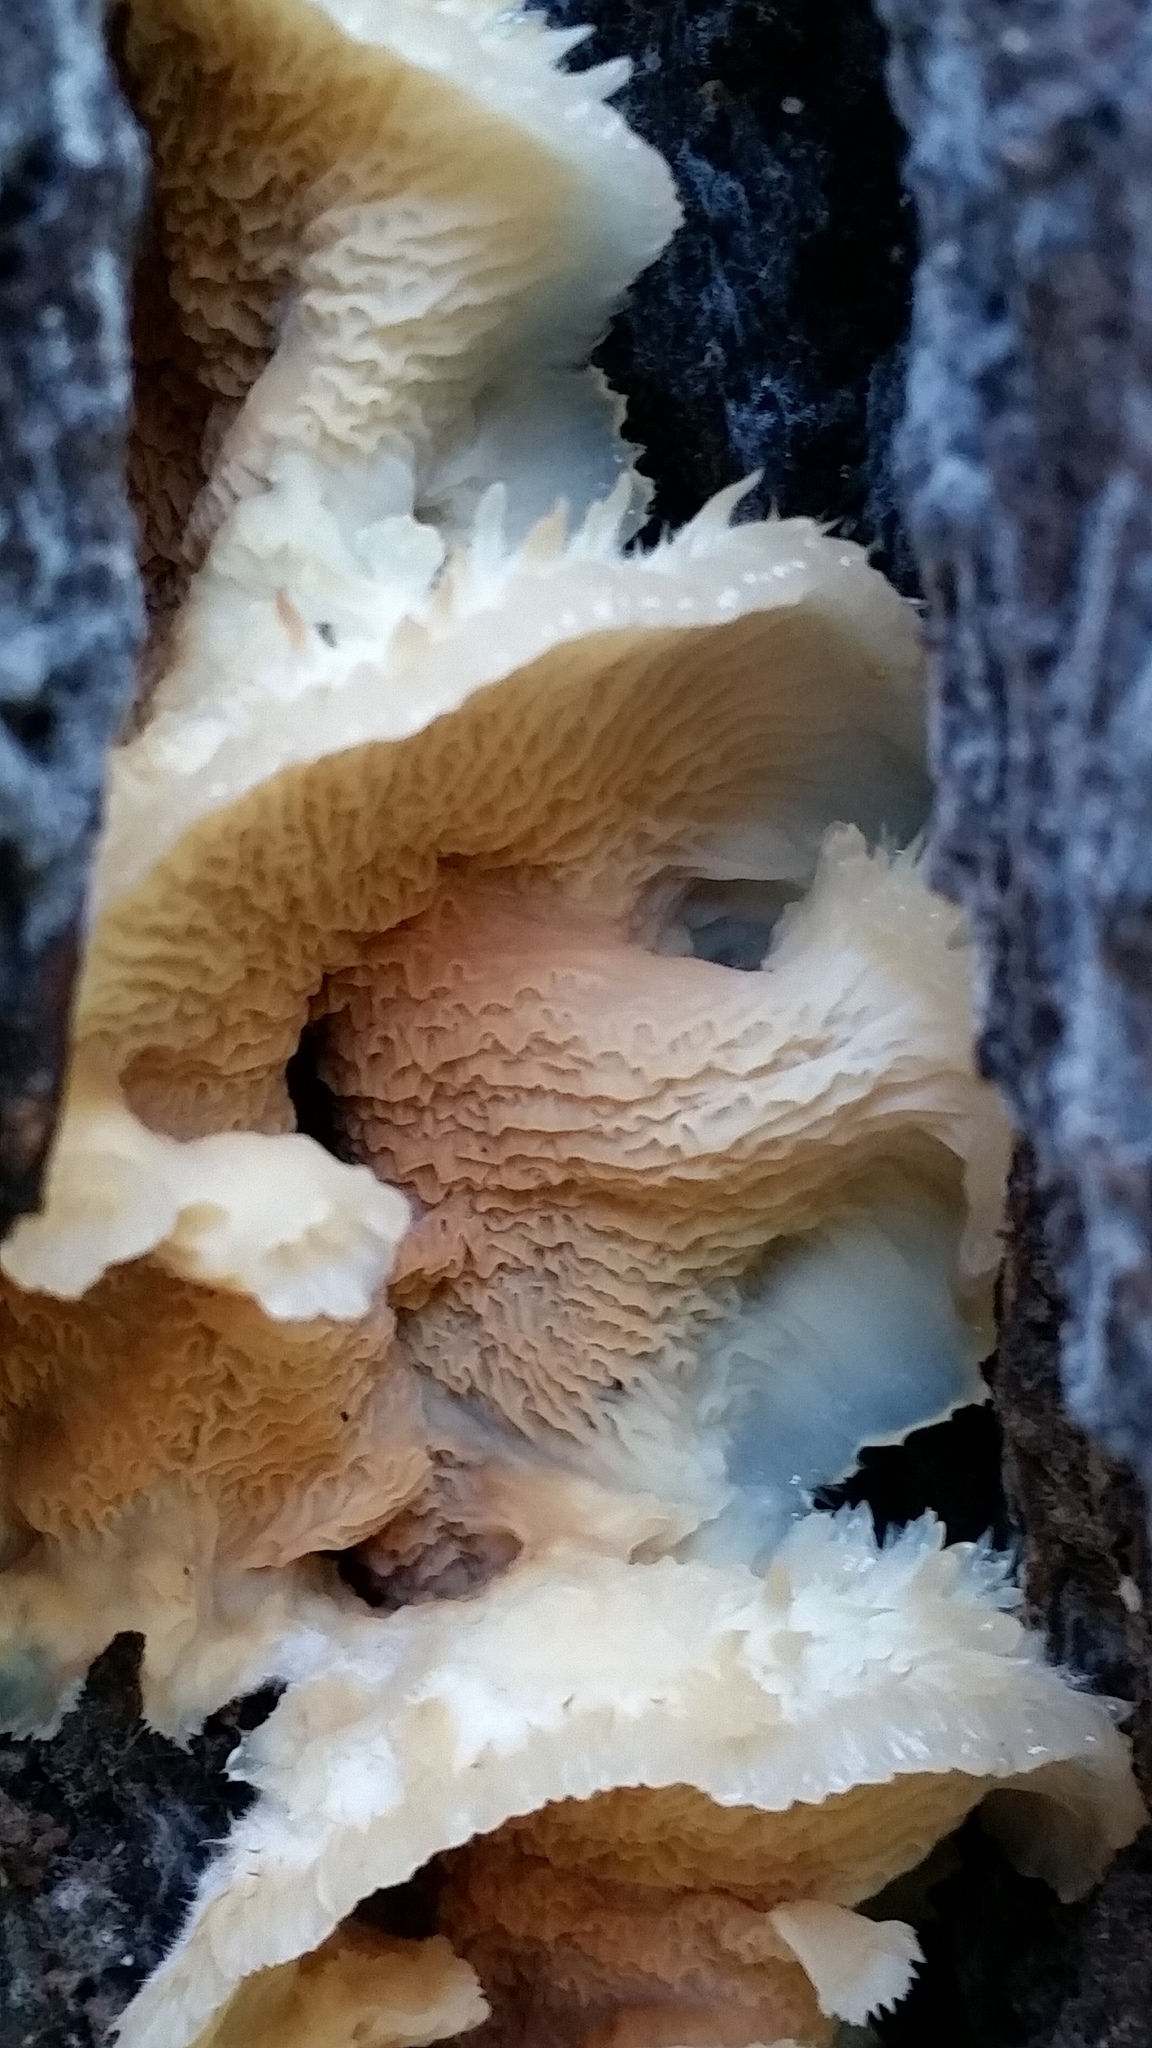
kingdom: Fungi
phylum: Basidiomycota
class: Agaricomycetes
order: Polyporales
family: Meruliaceae
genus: Phlebia
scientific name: Phlebia tremellosa
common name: Jelly rot
